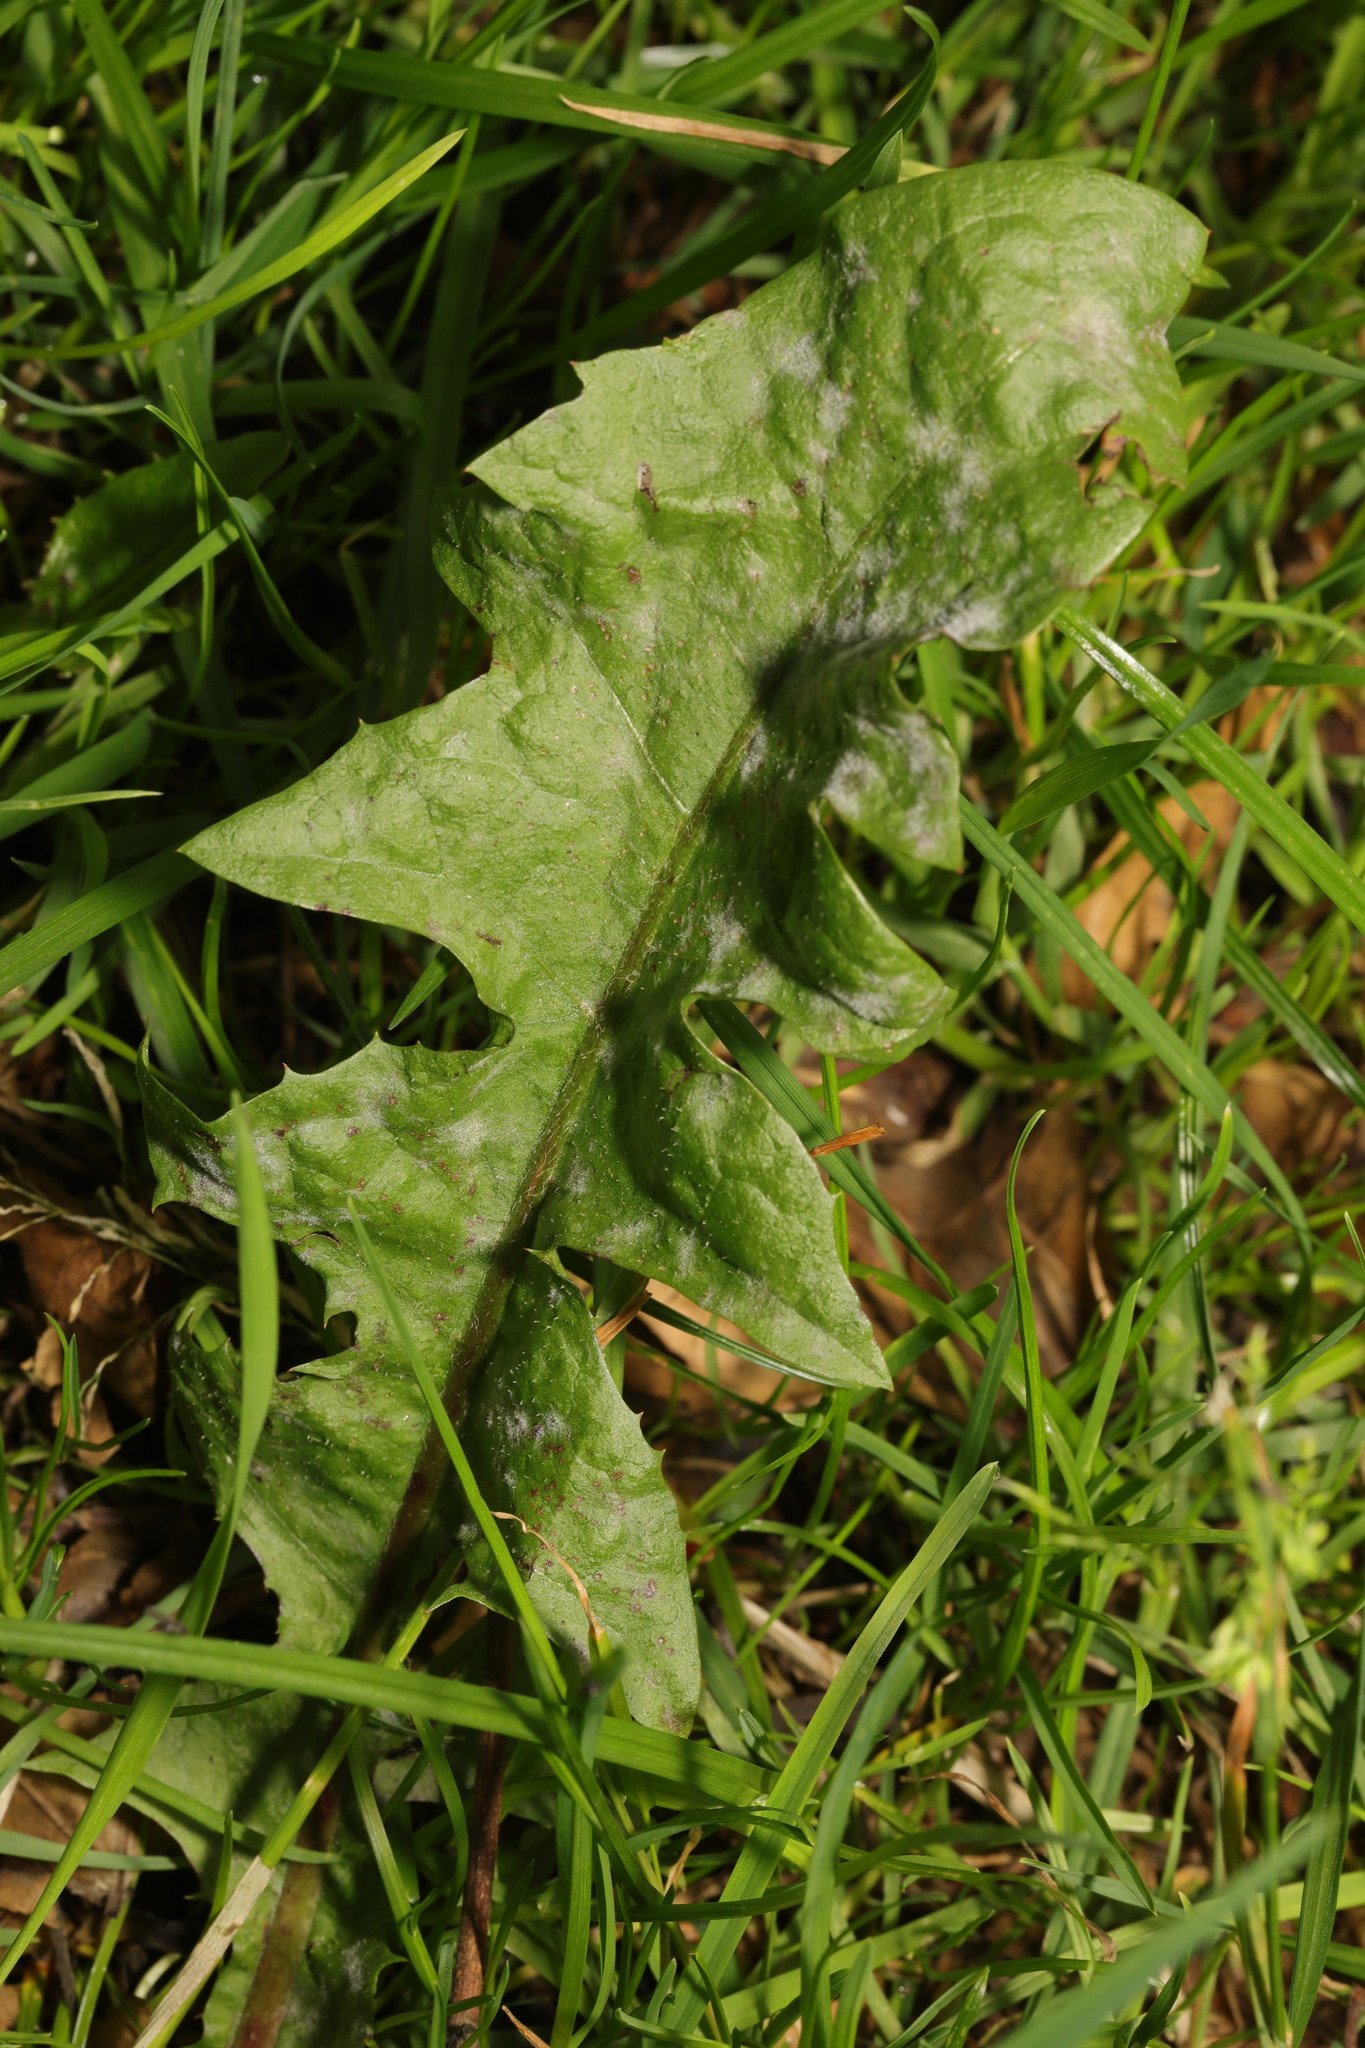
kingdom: Plantae
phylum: Tracheophyta
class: Magnoliopsida
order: Asterales
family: Asteraceae
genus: Taraxacum
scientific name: Taraxacum officinale
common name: Common dandelion
